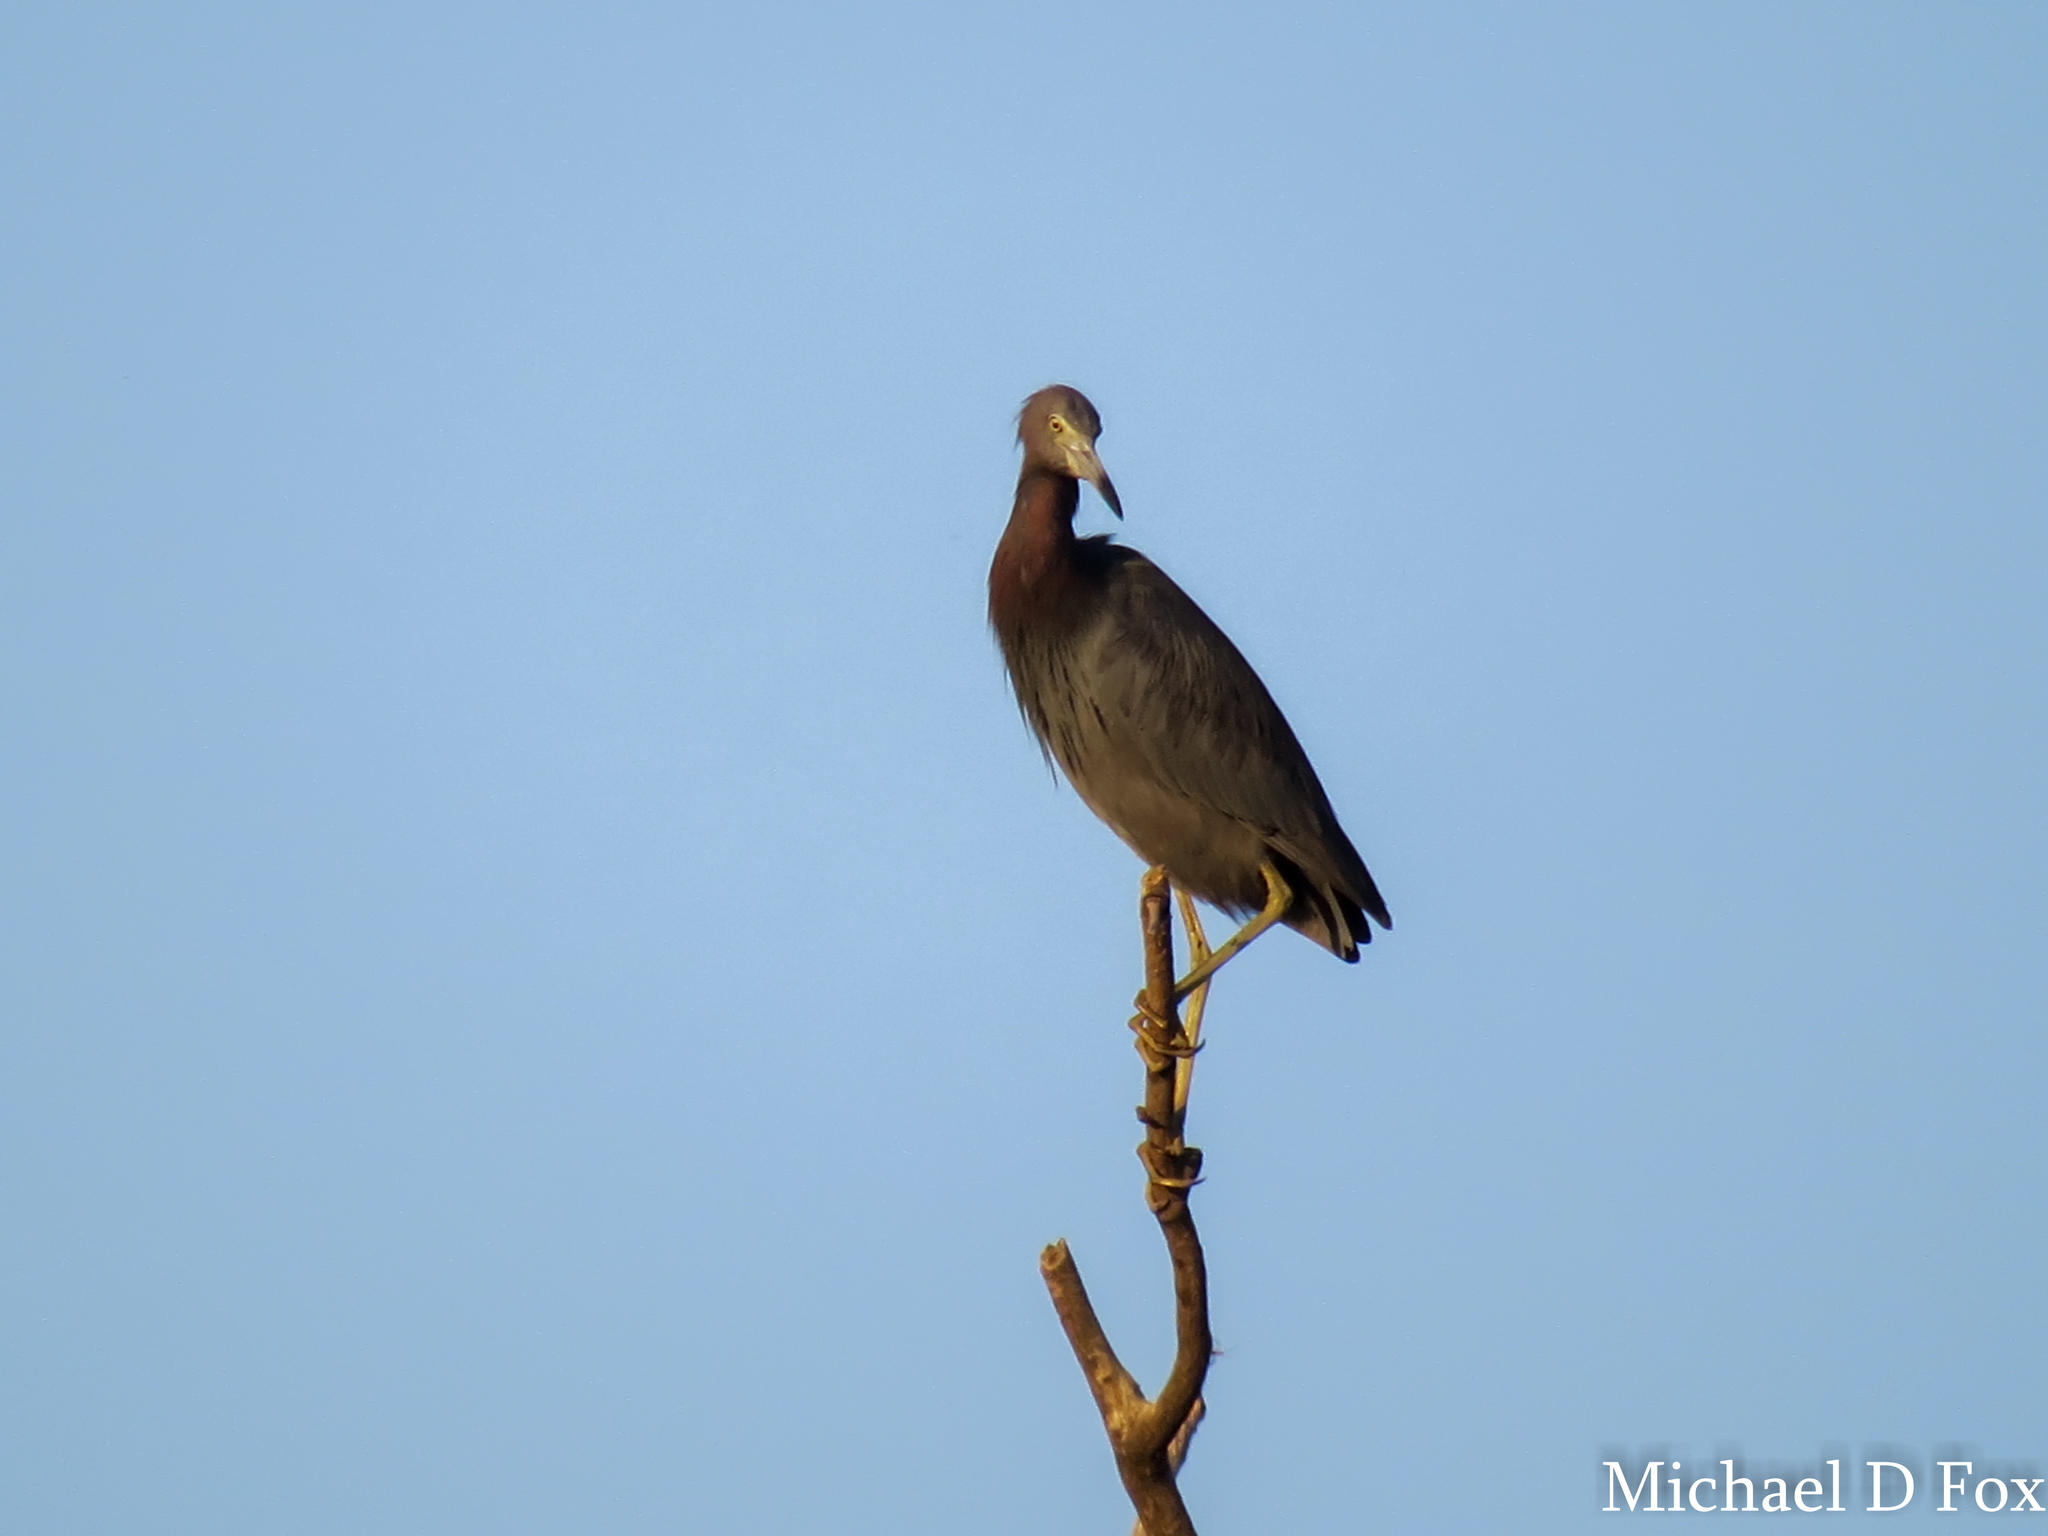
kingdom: Animalia
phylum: Chordata
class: Aves
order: Pelecaniformes
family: Ardeidae
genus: Egretta
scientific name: Egretta caerulea
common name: Little blue heron
